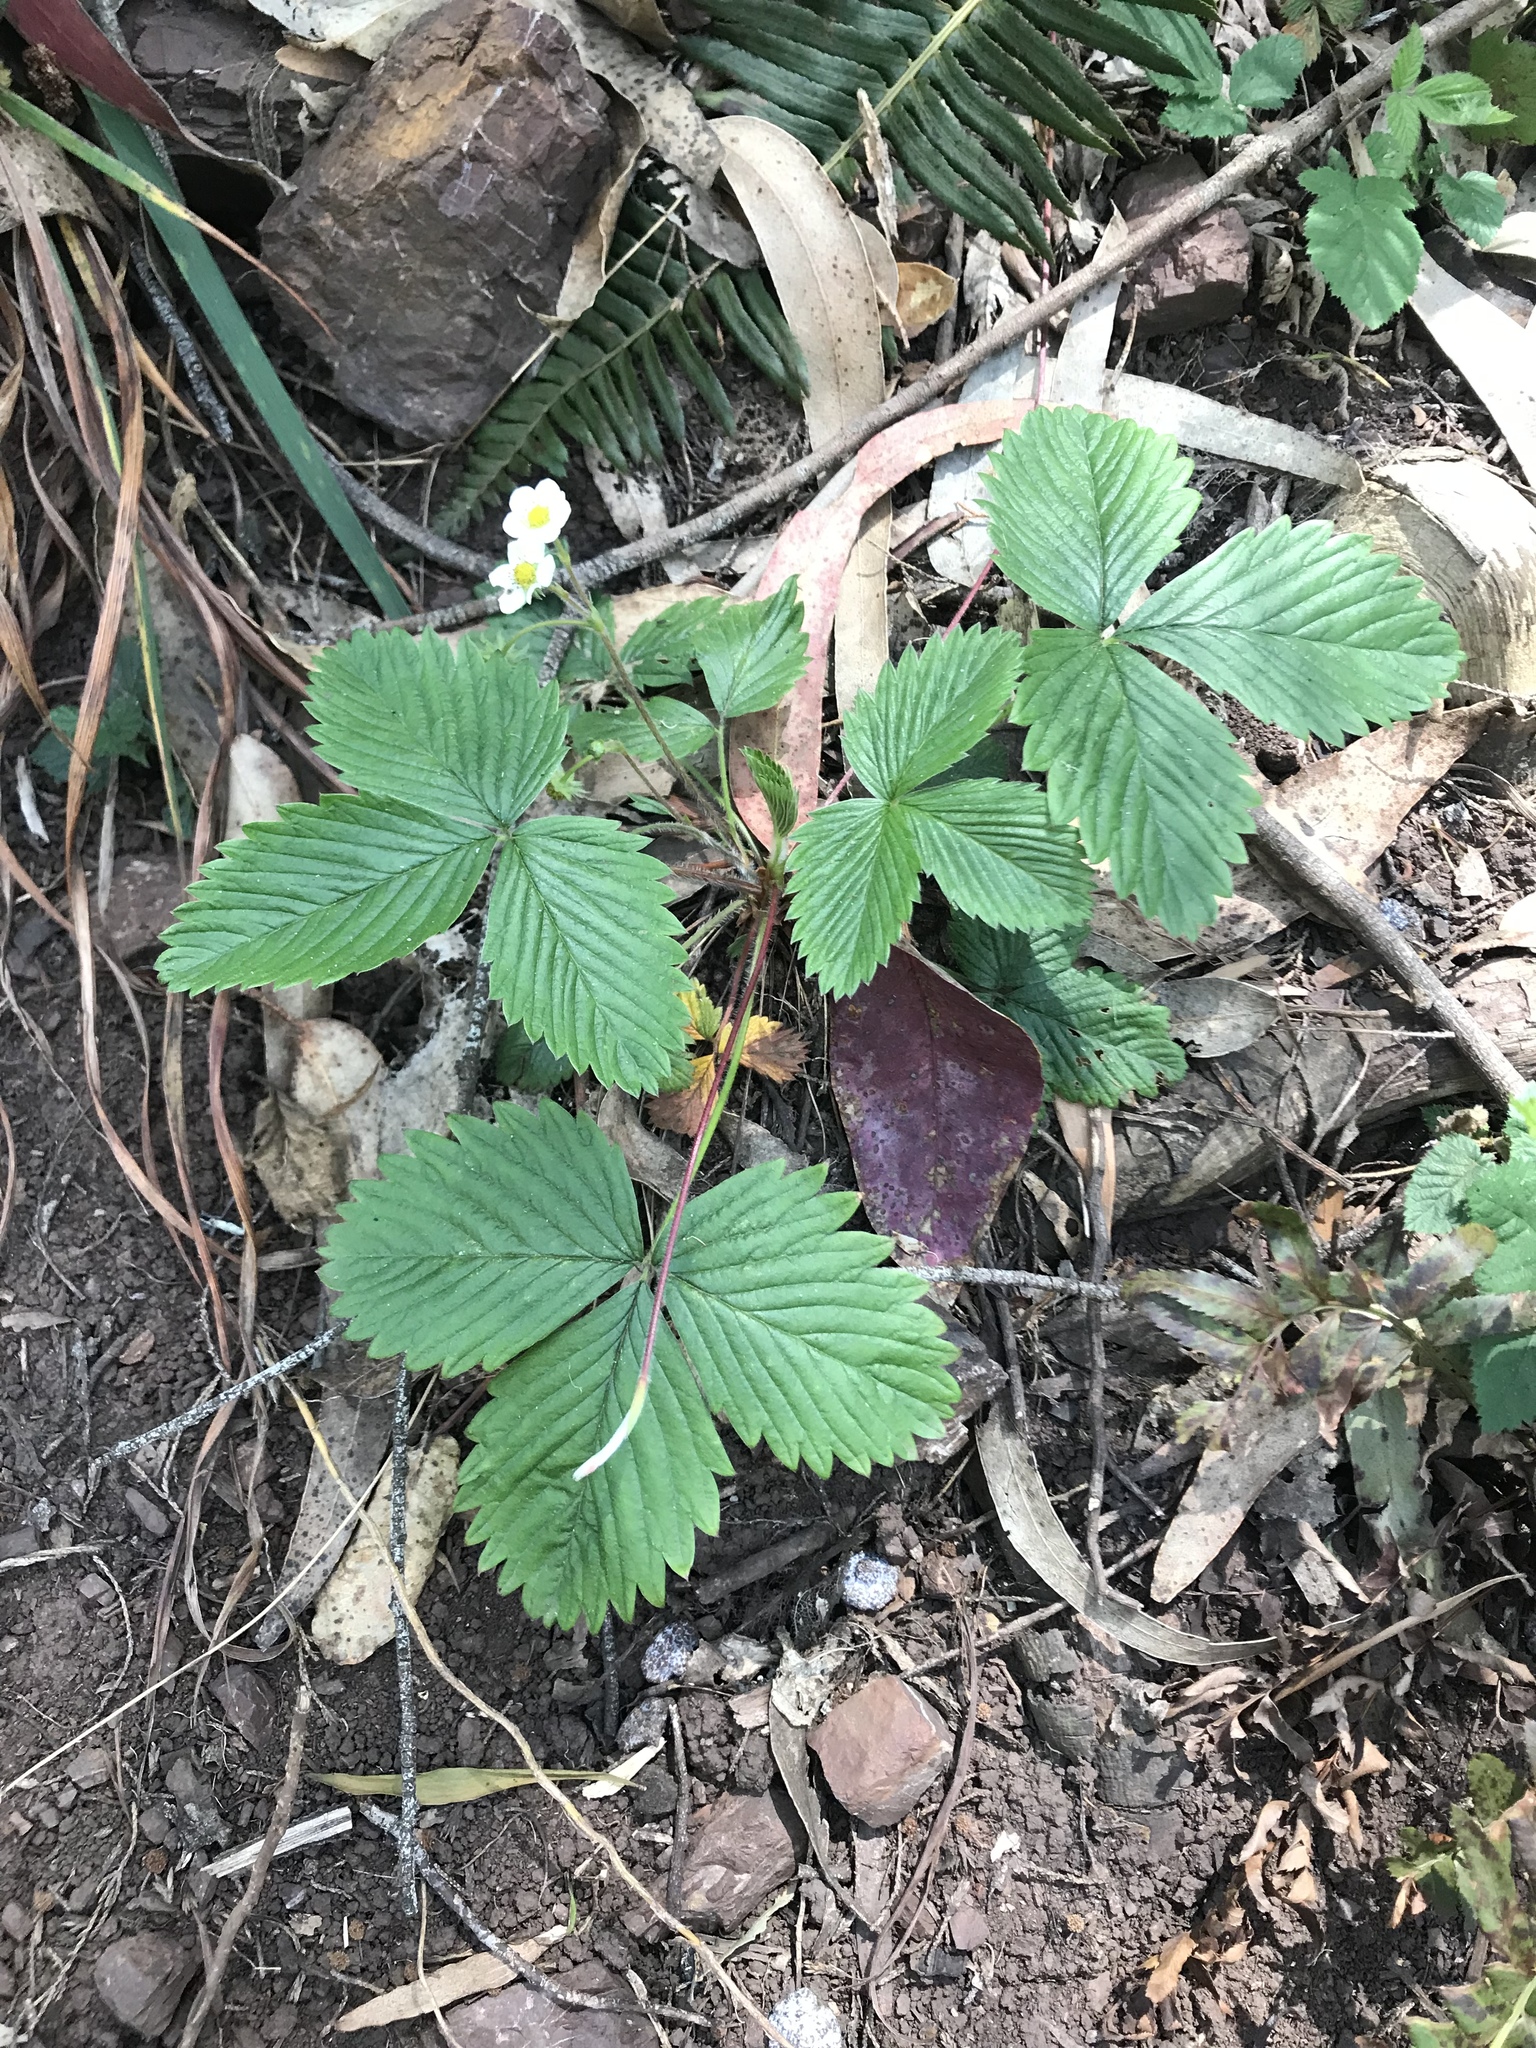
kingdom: Plantae
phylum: Tracheophyta
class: Magnoliopsida
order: Rosales
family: Rosaceae
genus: Fragaria
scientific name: Fragaria vesca
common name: Wild strawberry
